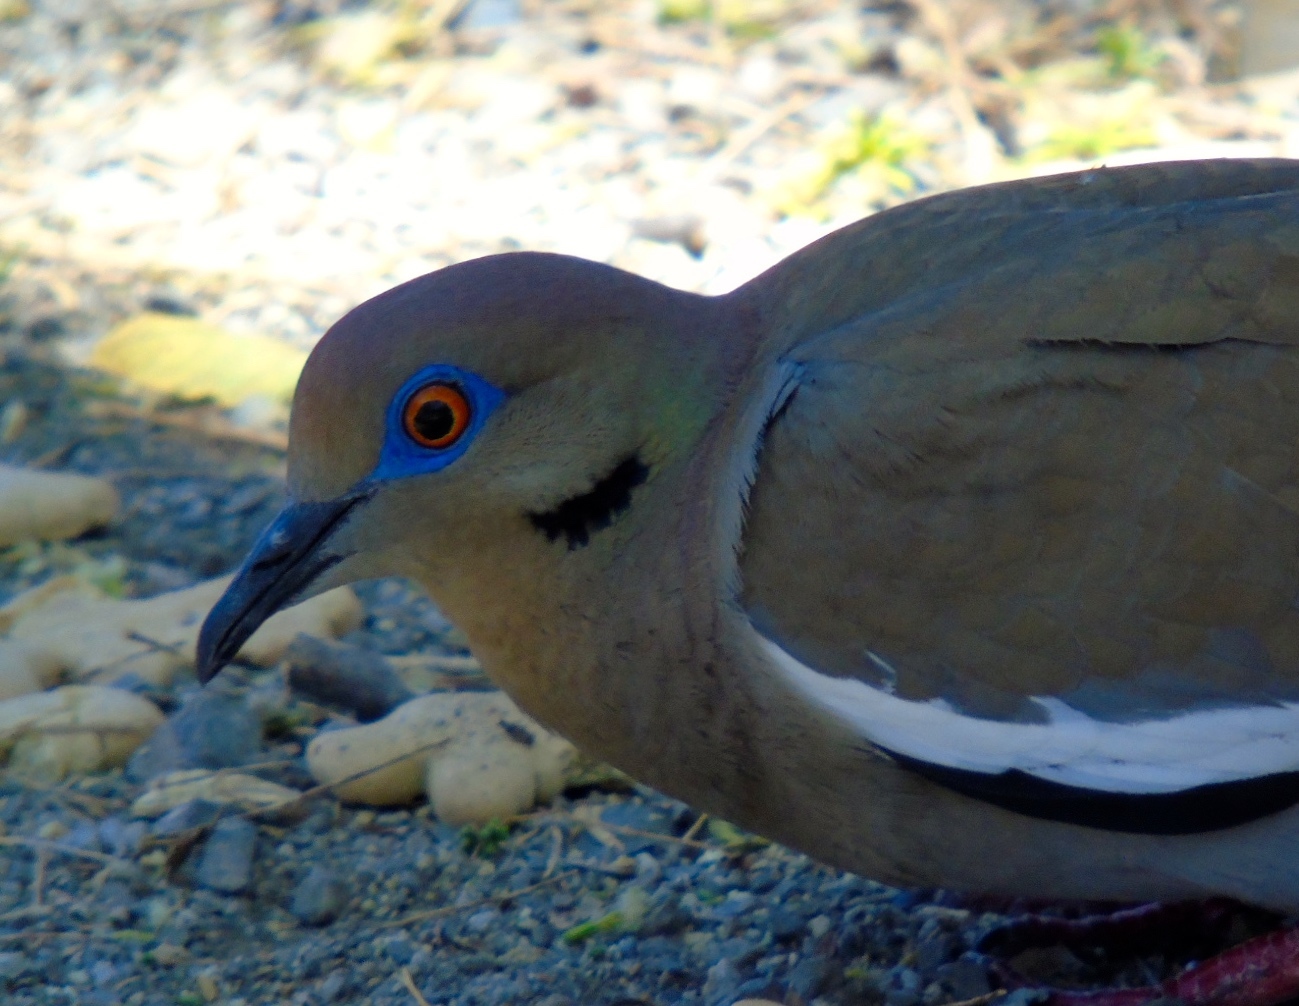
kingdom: Animalia
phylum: Chordata
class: Aves
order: Columbiformes
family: Columbidae
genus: Zenaida
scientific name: Zenaida asiatica
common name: White-winged dove
